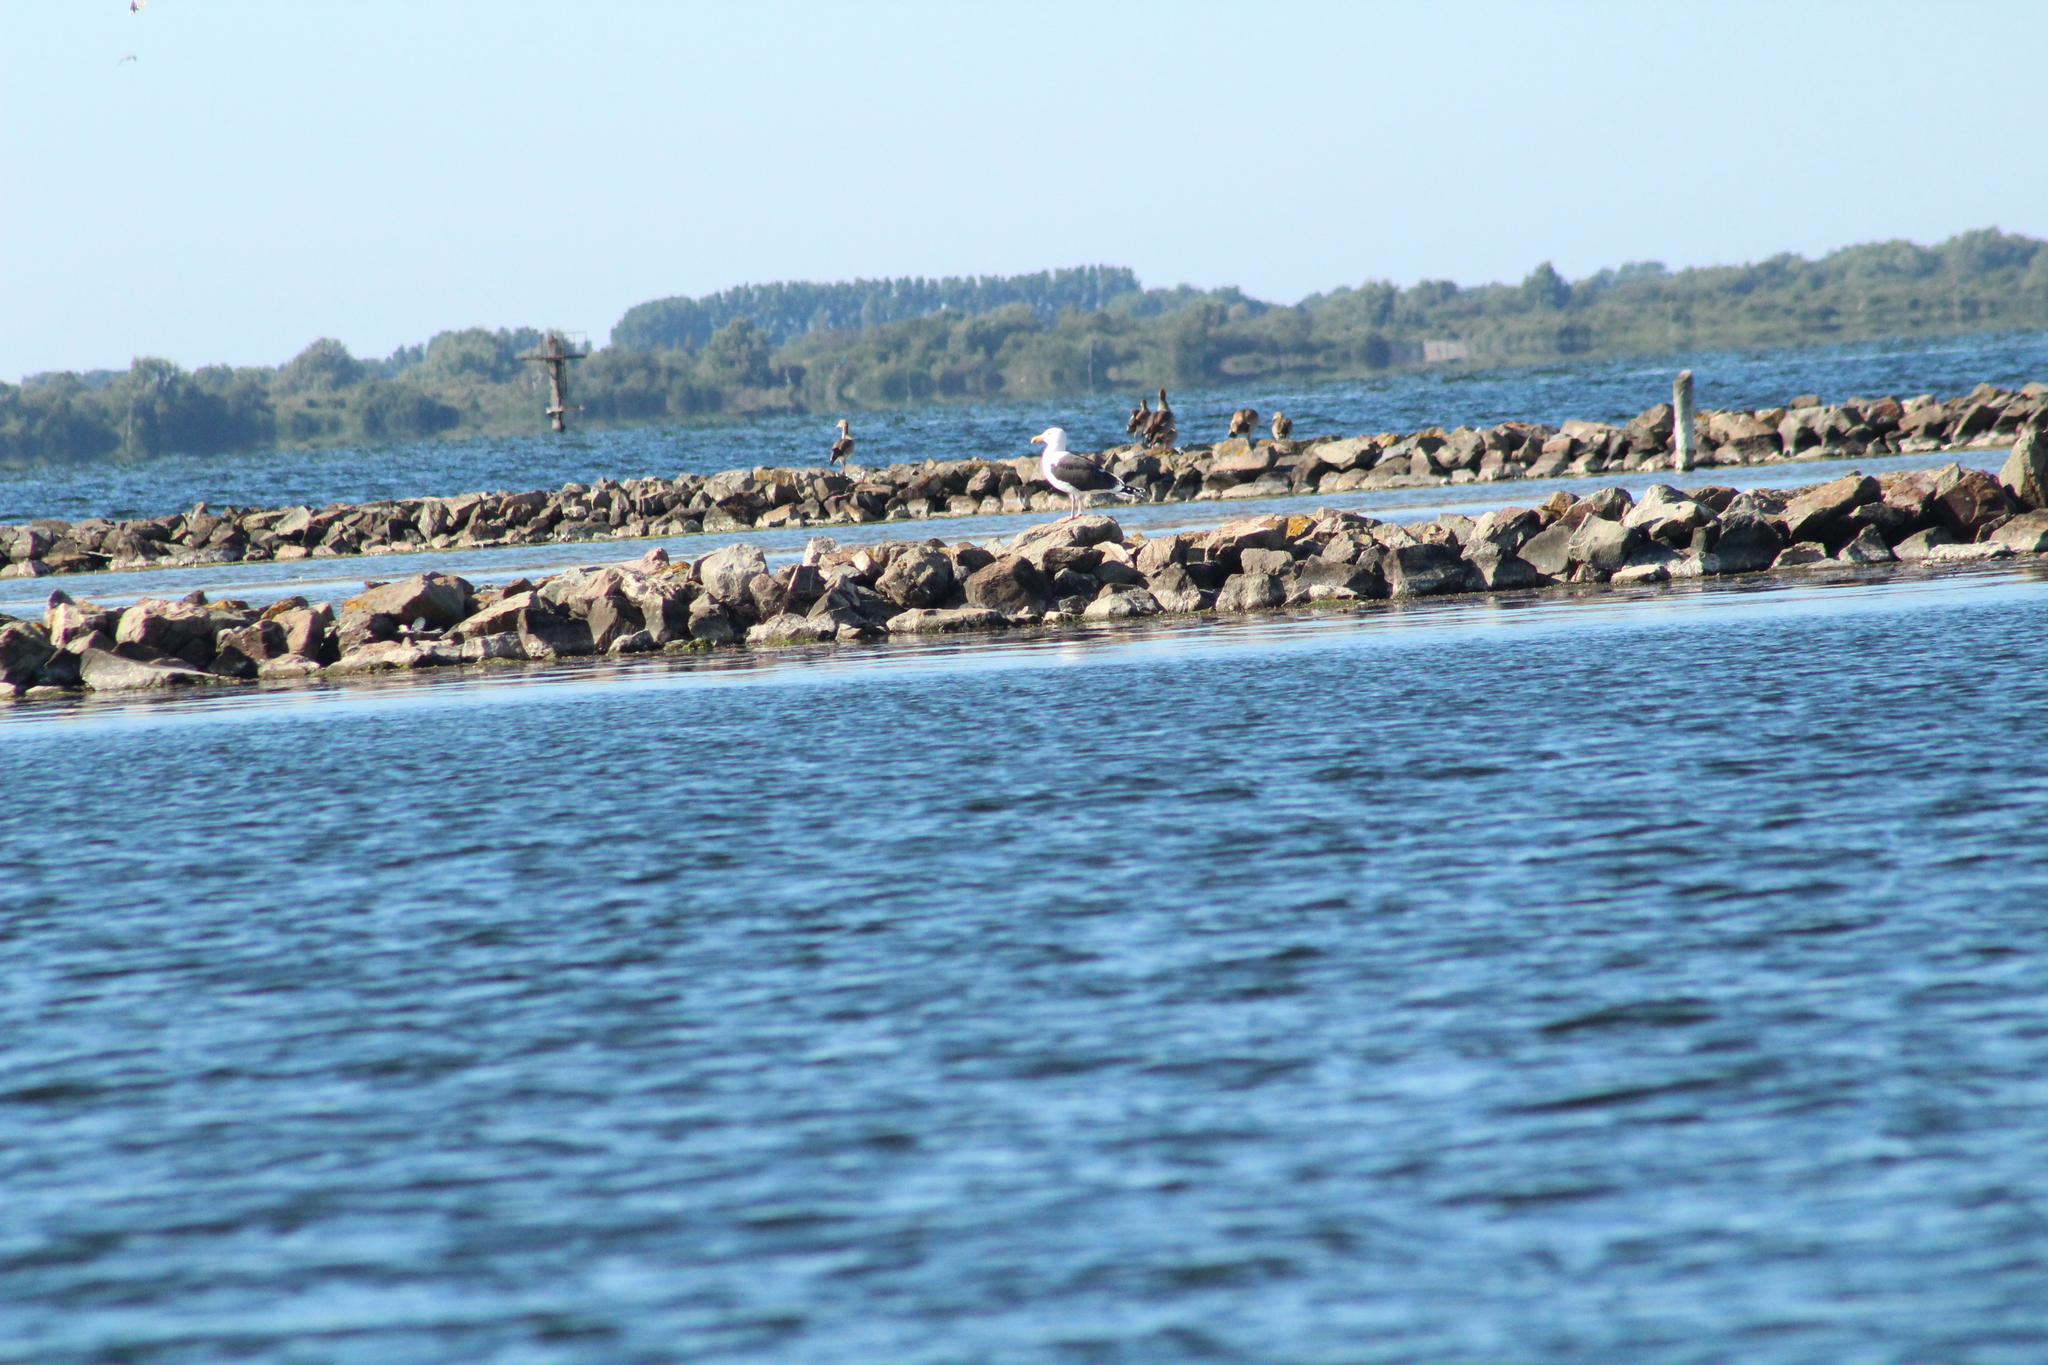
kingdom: Animalia
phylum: Chordata
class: Aves
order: Charadriiformes
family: Laridae
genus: Larus
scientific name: Larus marinus
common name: Great black-backed gull
